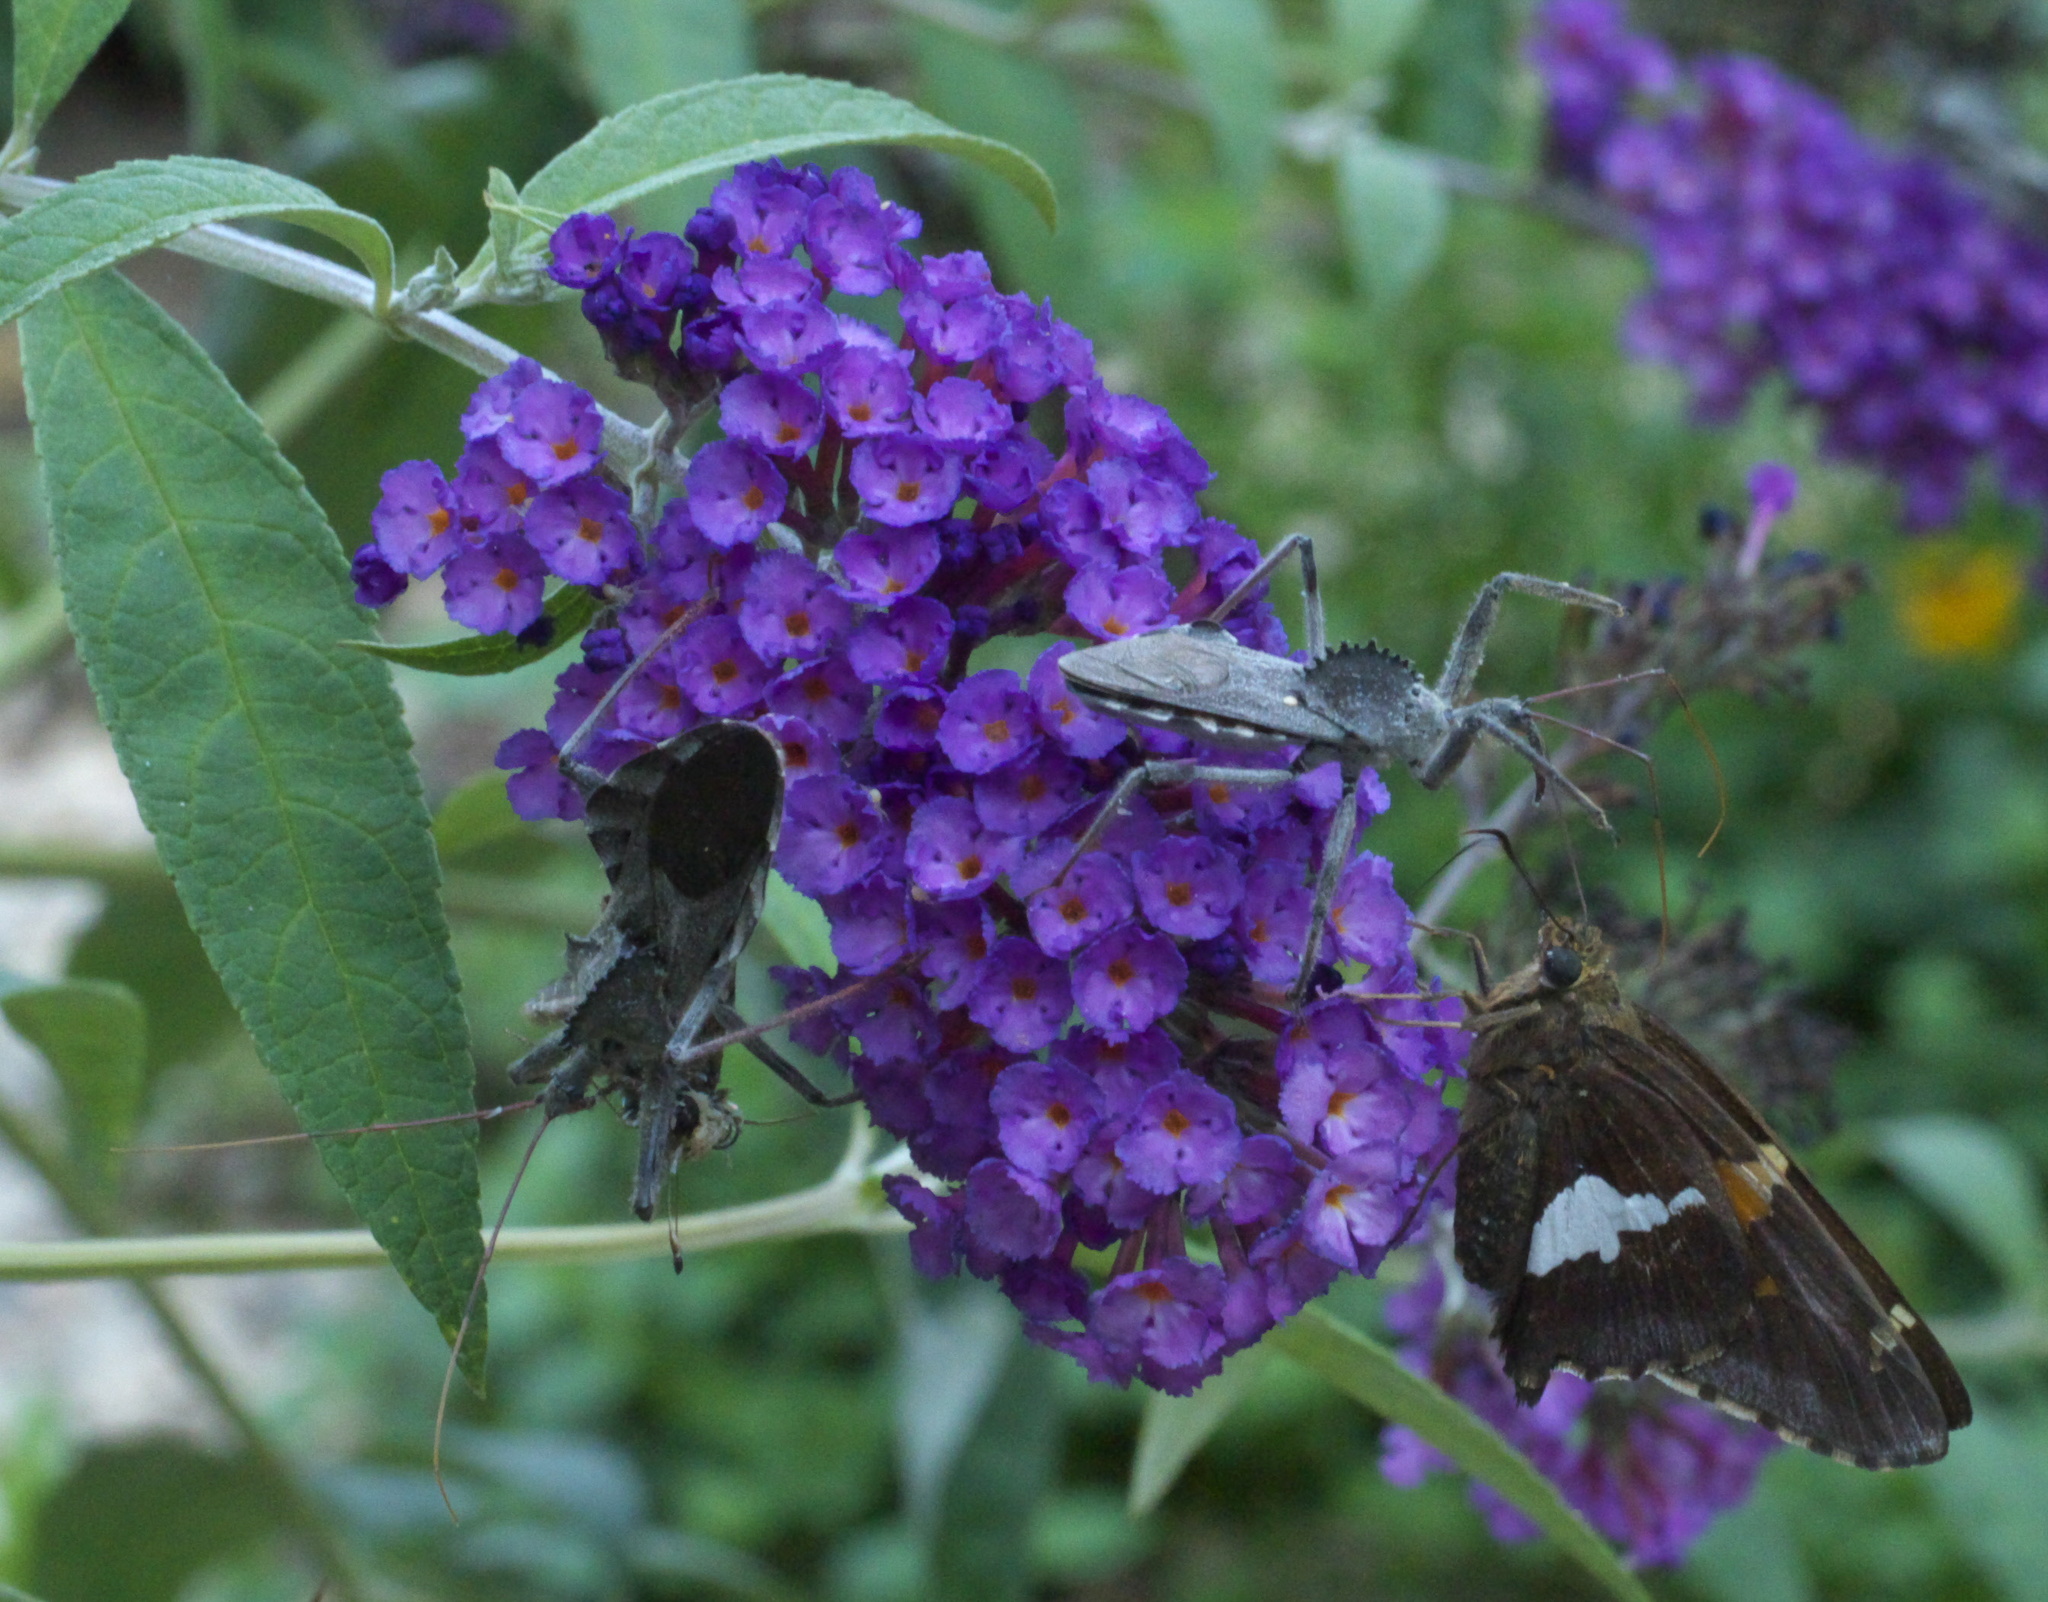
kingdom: Animalia
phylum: Arthropoda
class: Insecta
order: Lepidoptera
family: Hesperiidae
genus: Epargyreus
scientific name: Epargyreus clarus
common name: Silver-spotted skipper
